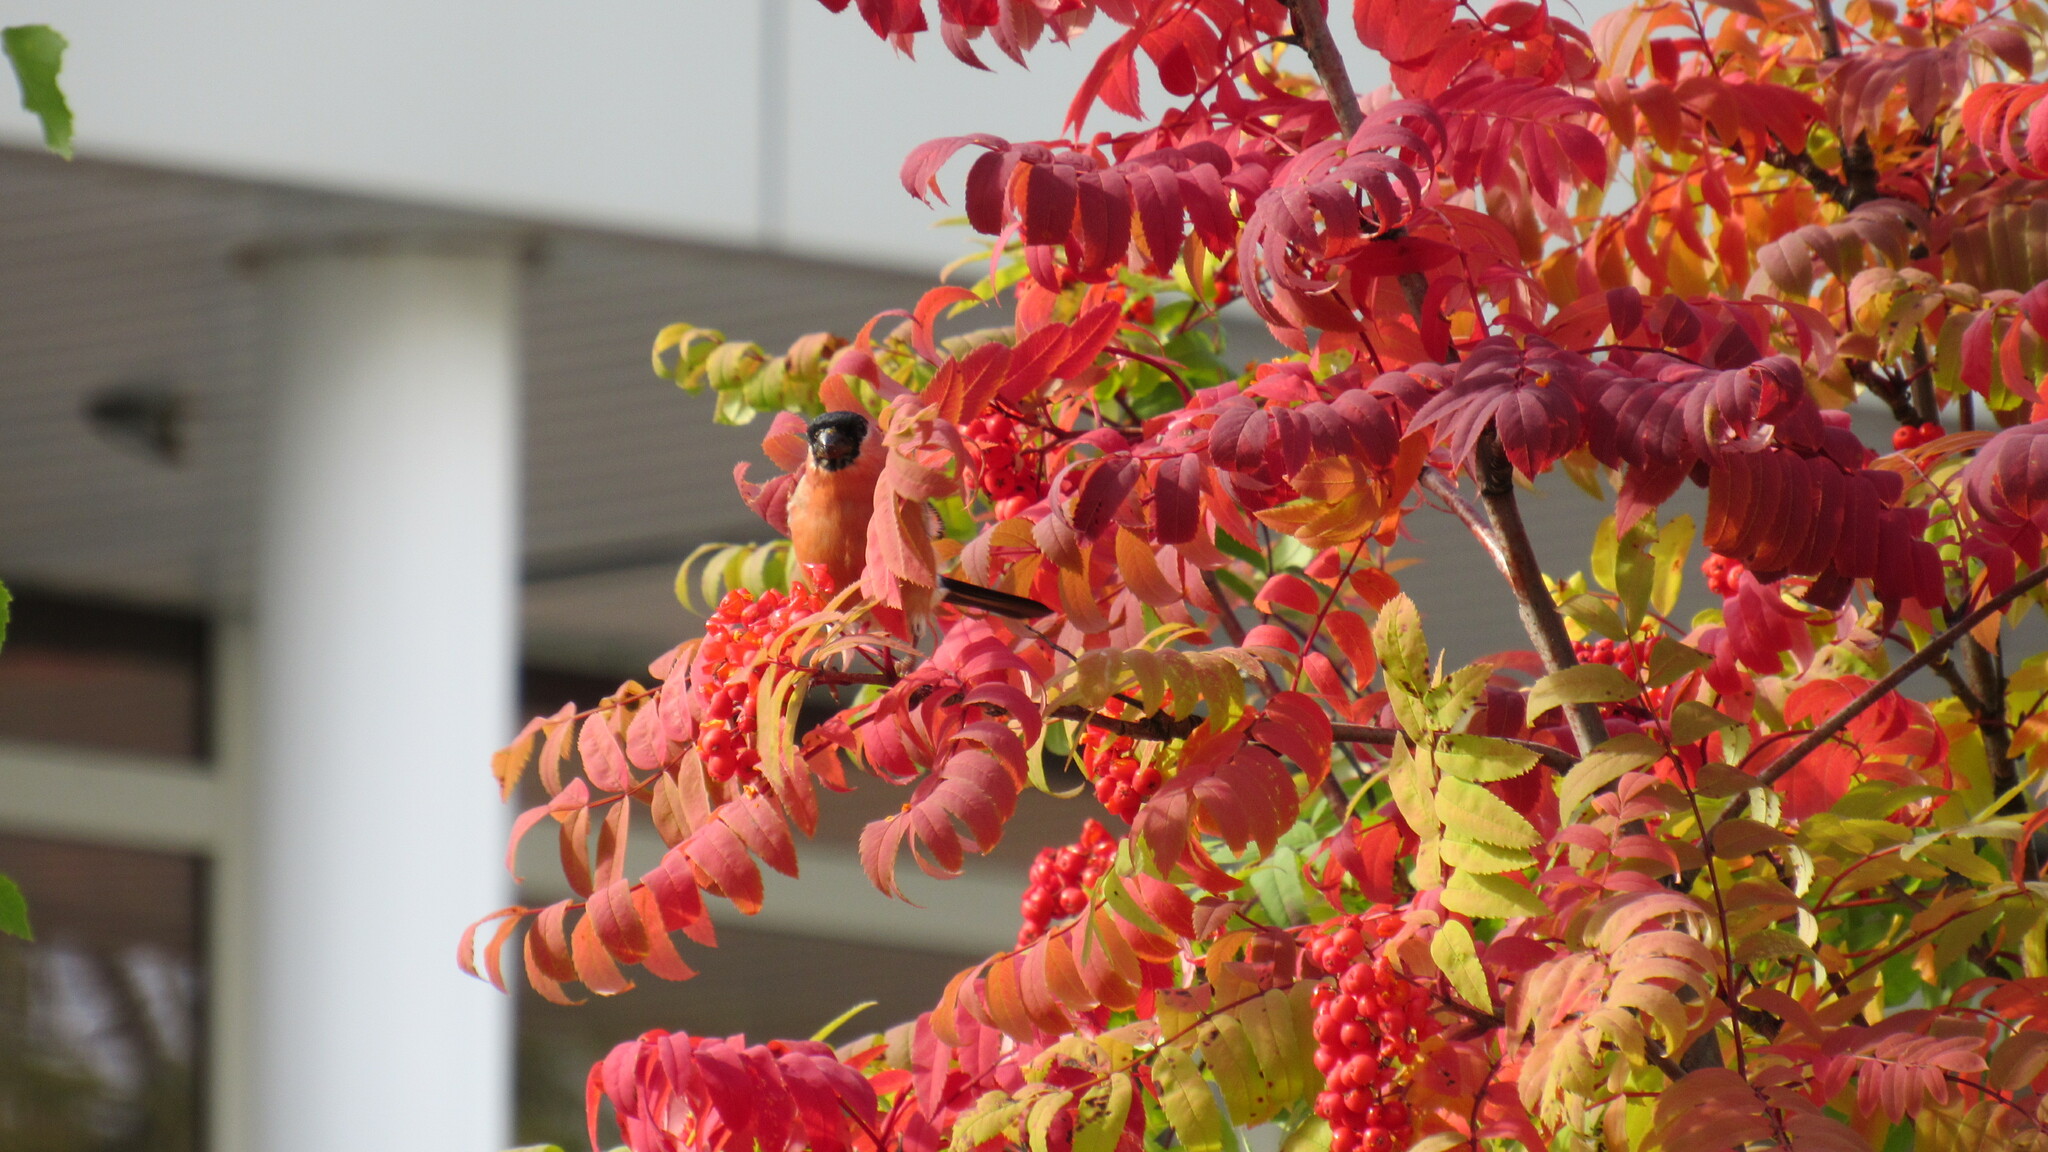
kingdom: Animalia
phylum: Chordata
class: Aves
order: Passeriformes
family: Fringillidae
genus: Pyrrhula
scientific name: Pyrrhula pyrrhula
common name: Eurasian bullfinch
